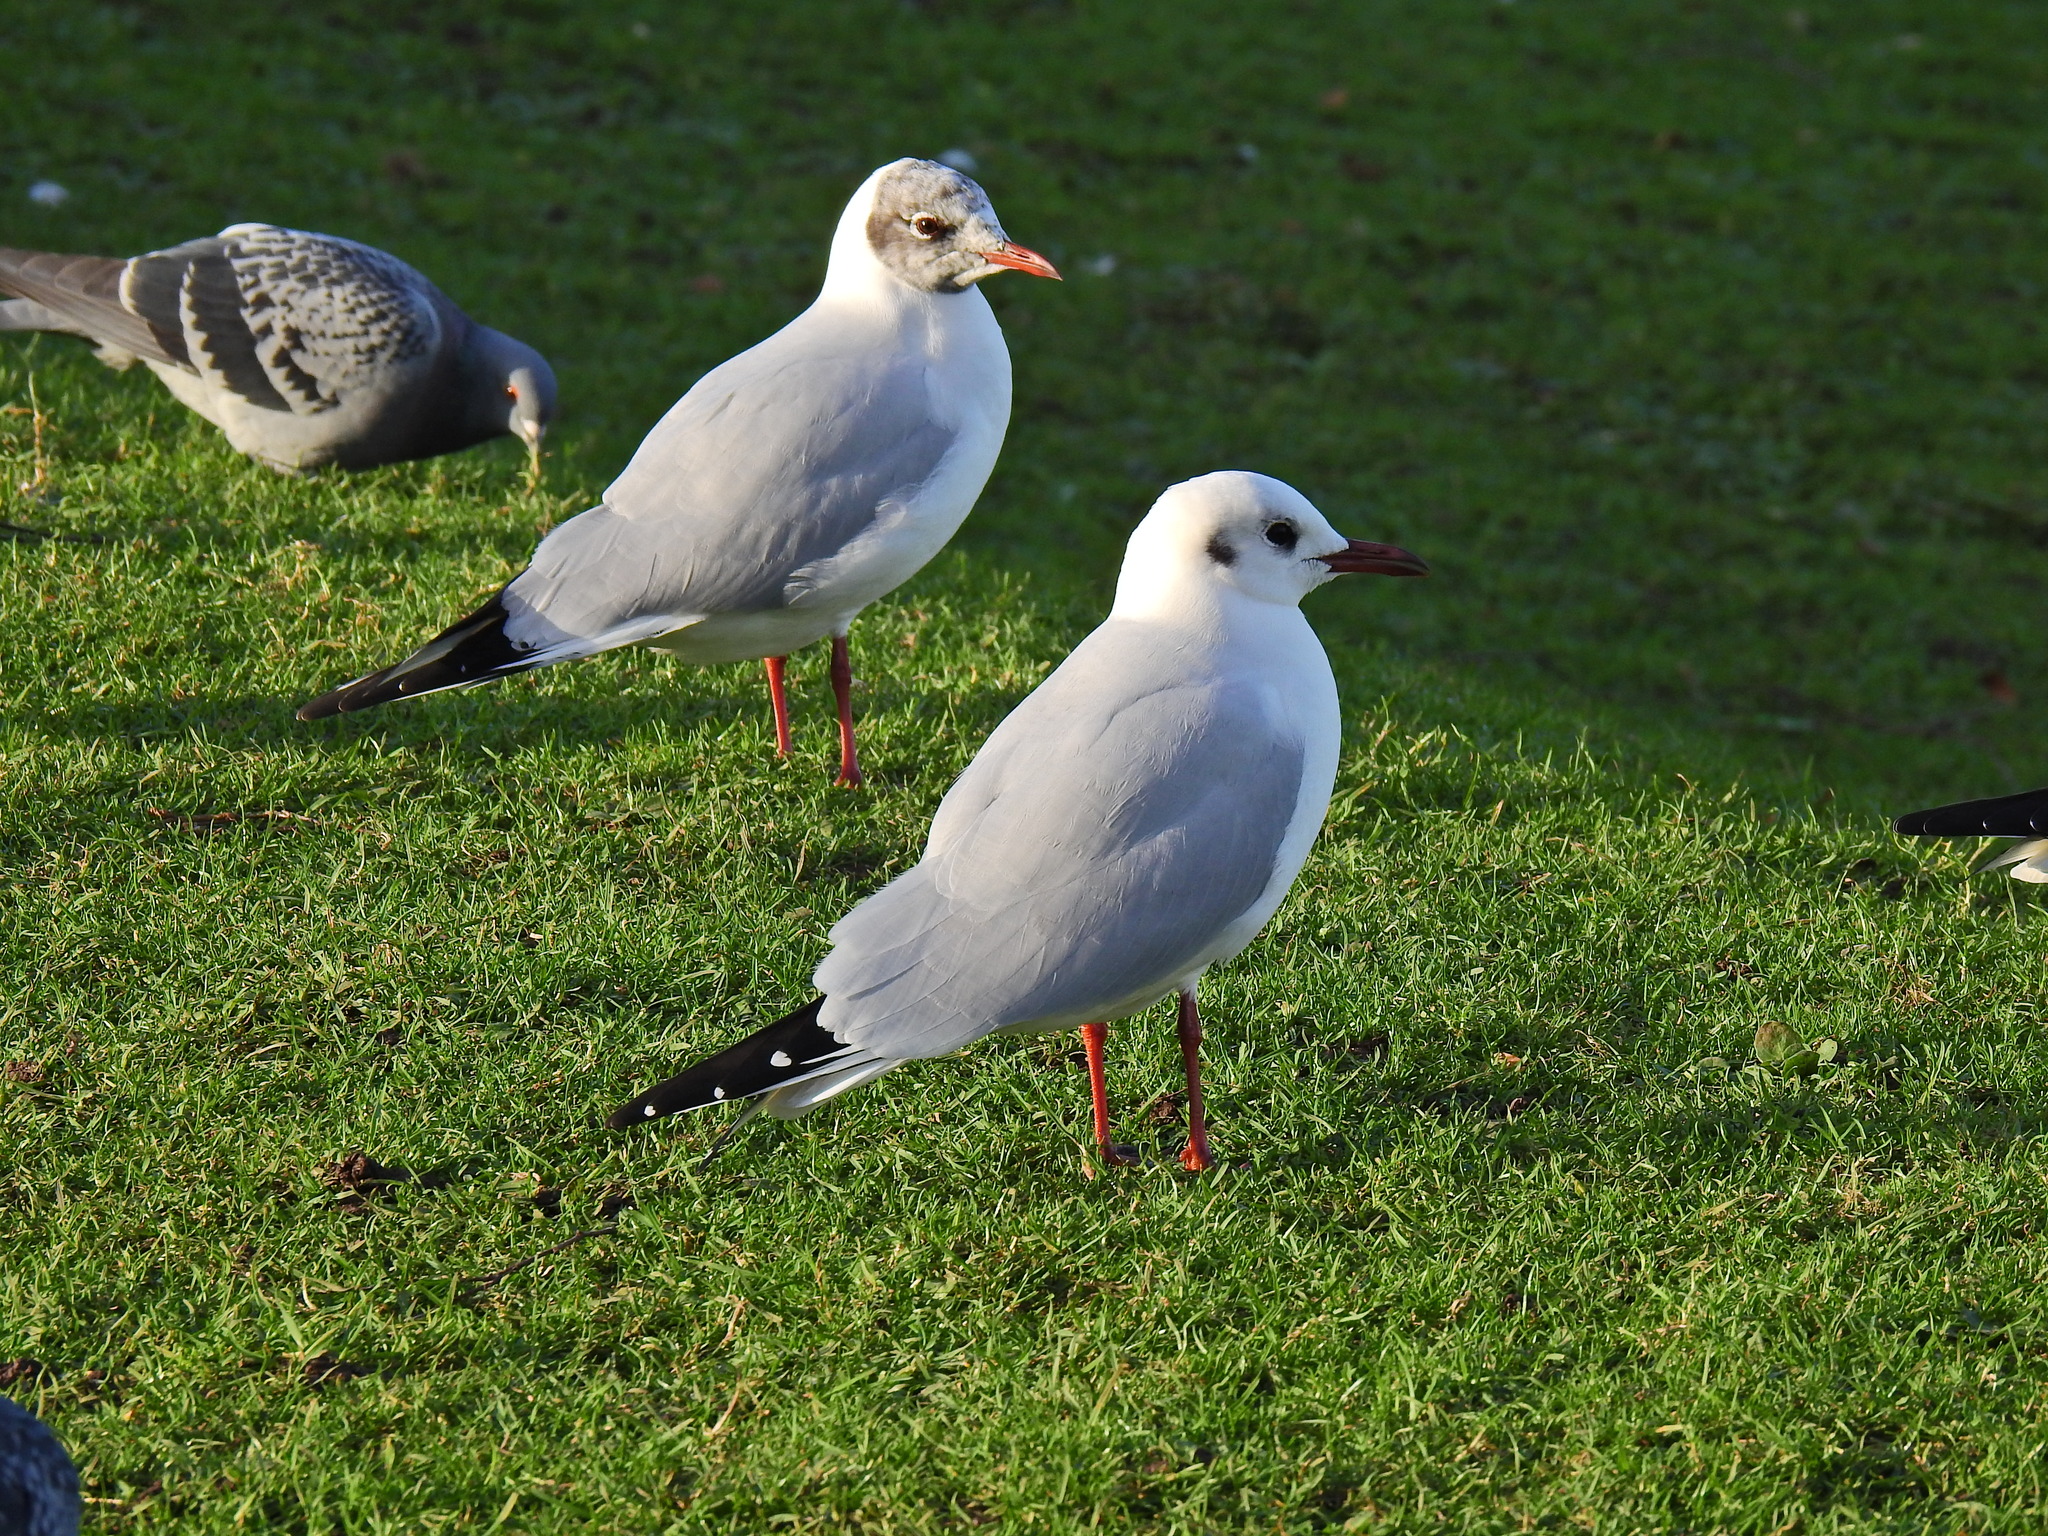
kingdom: Animalia
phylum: Chordata
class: Aves
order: Charadriiformes
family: Laridae
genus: Chroicocephalus
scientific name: Chroicocephalus ridibundus
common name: Black-headed gull
